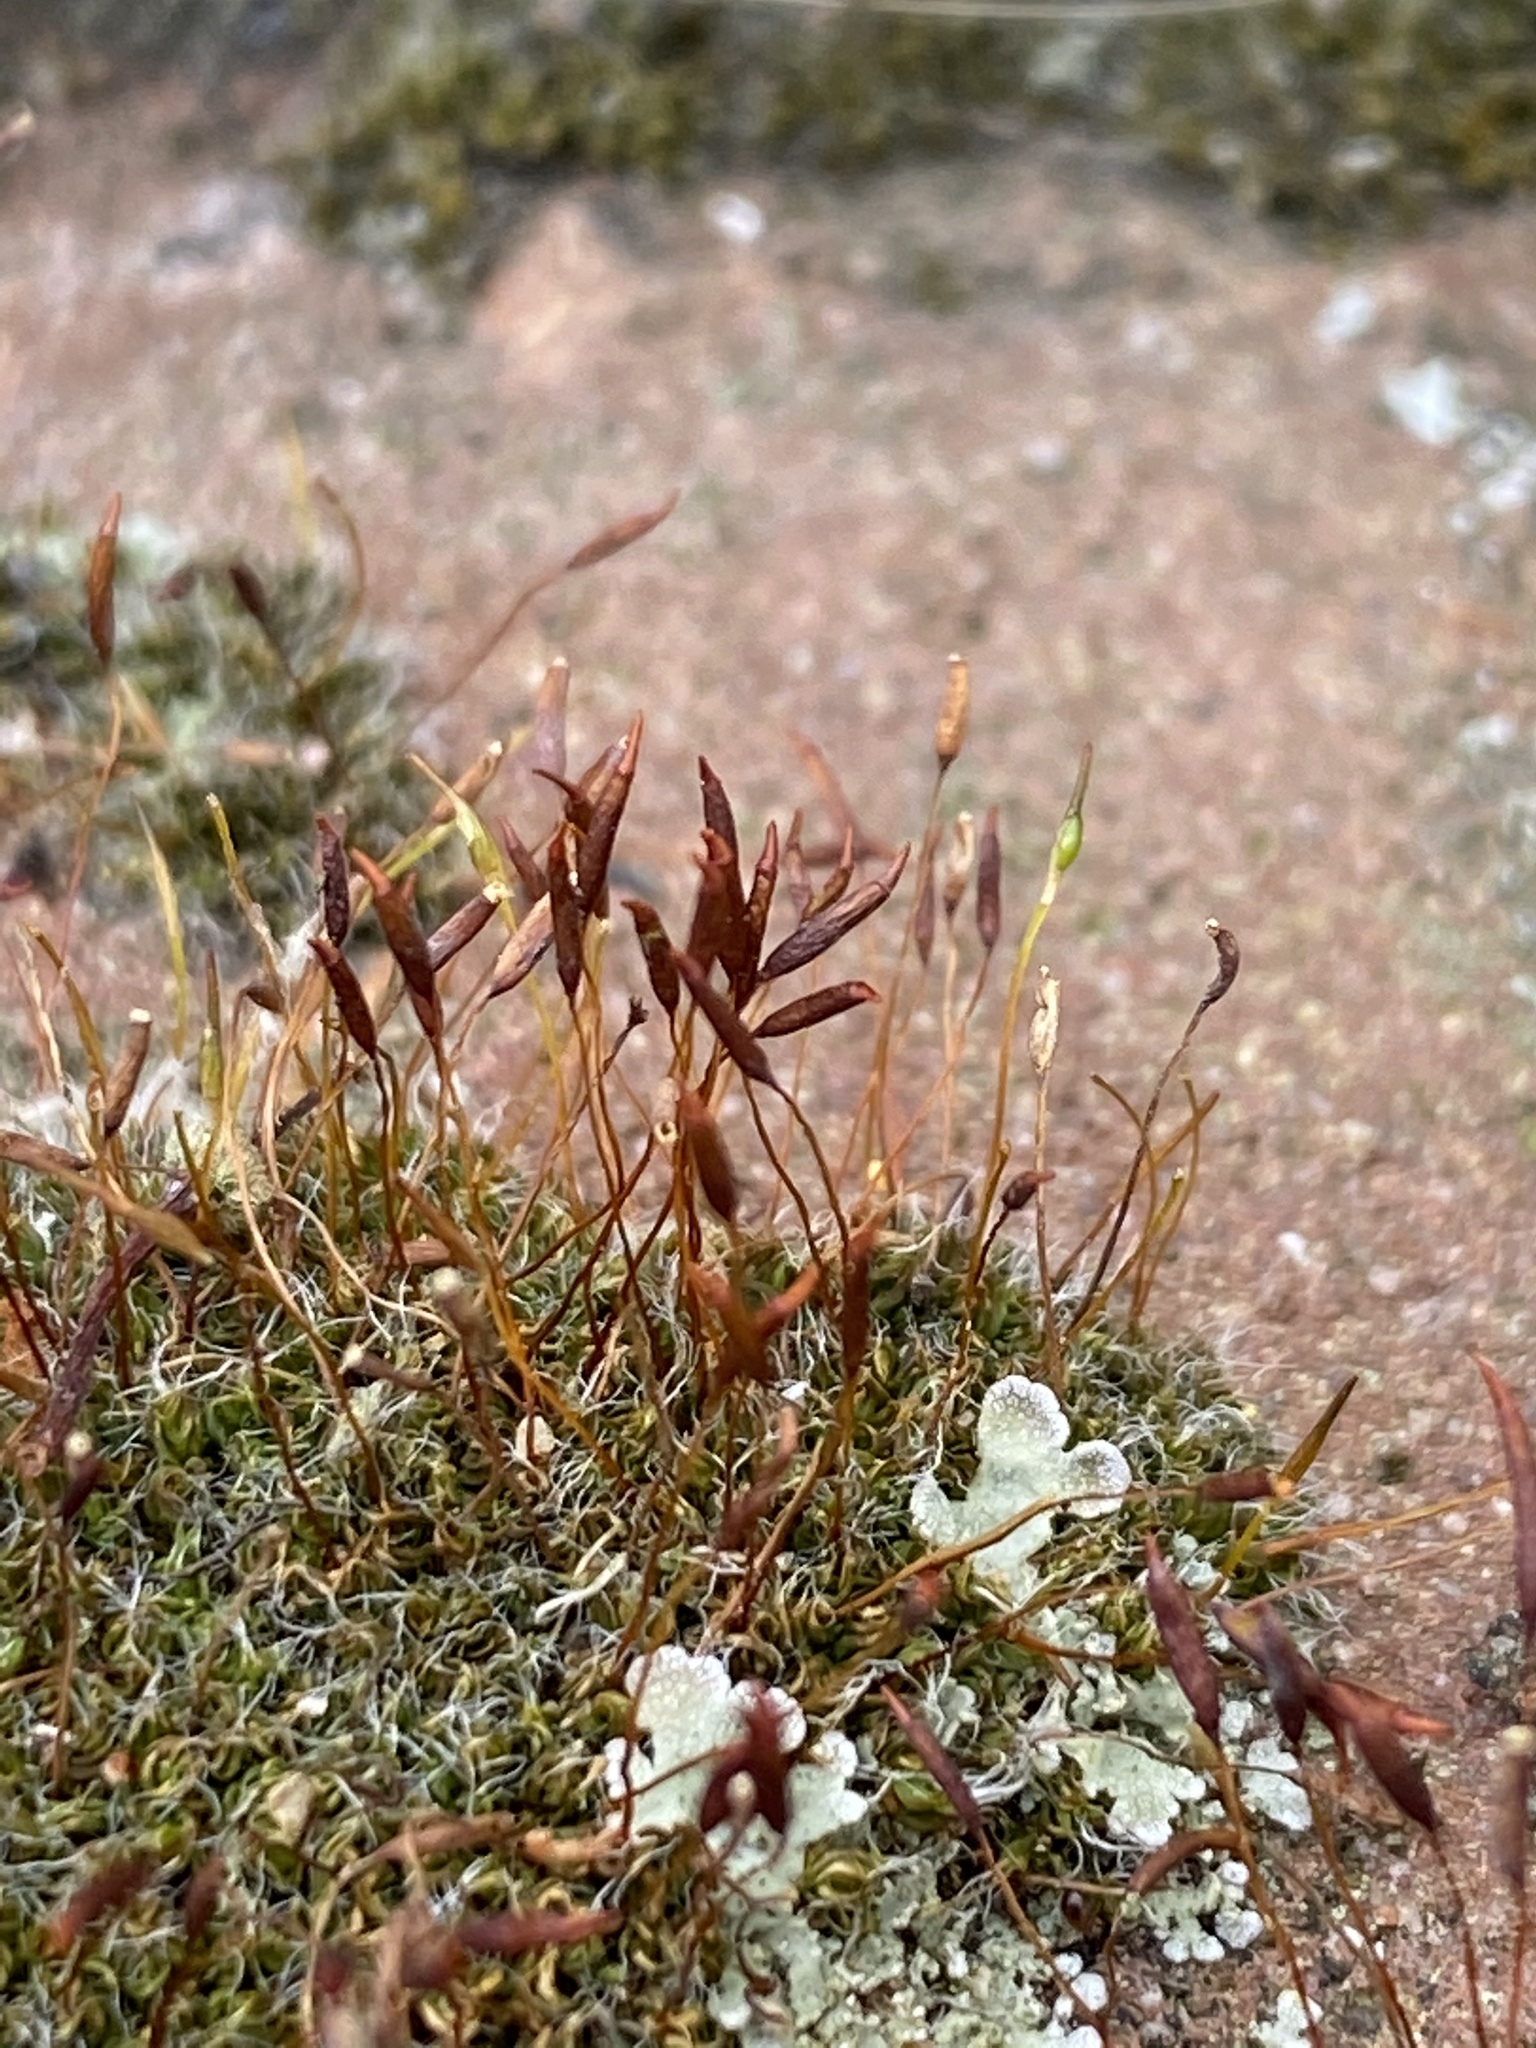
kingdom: Plantae
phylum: Bryophyta
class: Bryopsida
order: Pottiales
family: Pottiaceae
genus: Tortula
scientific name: Tortula muralis
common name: Wall screw-moss
